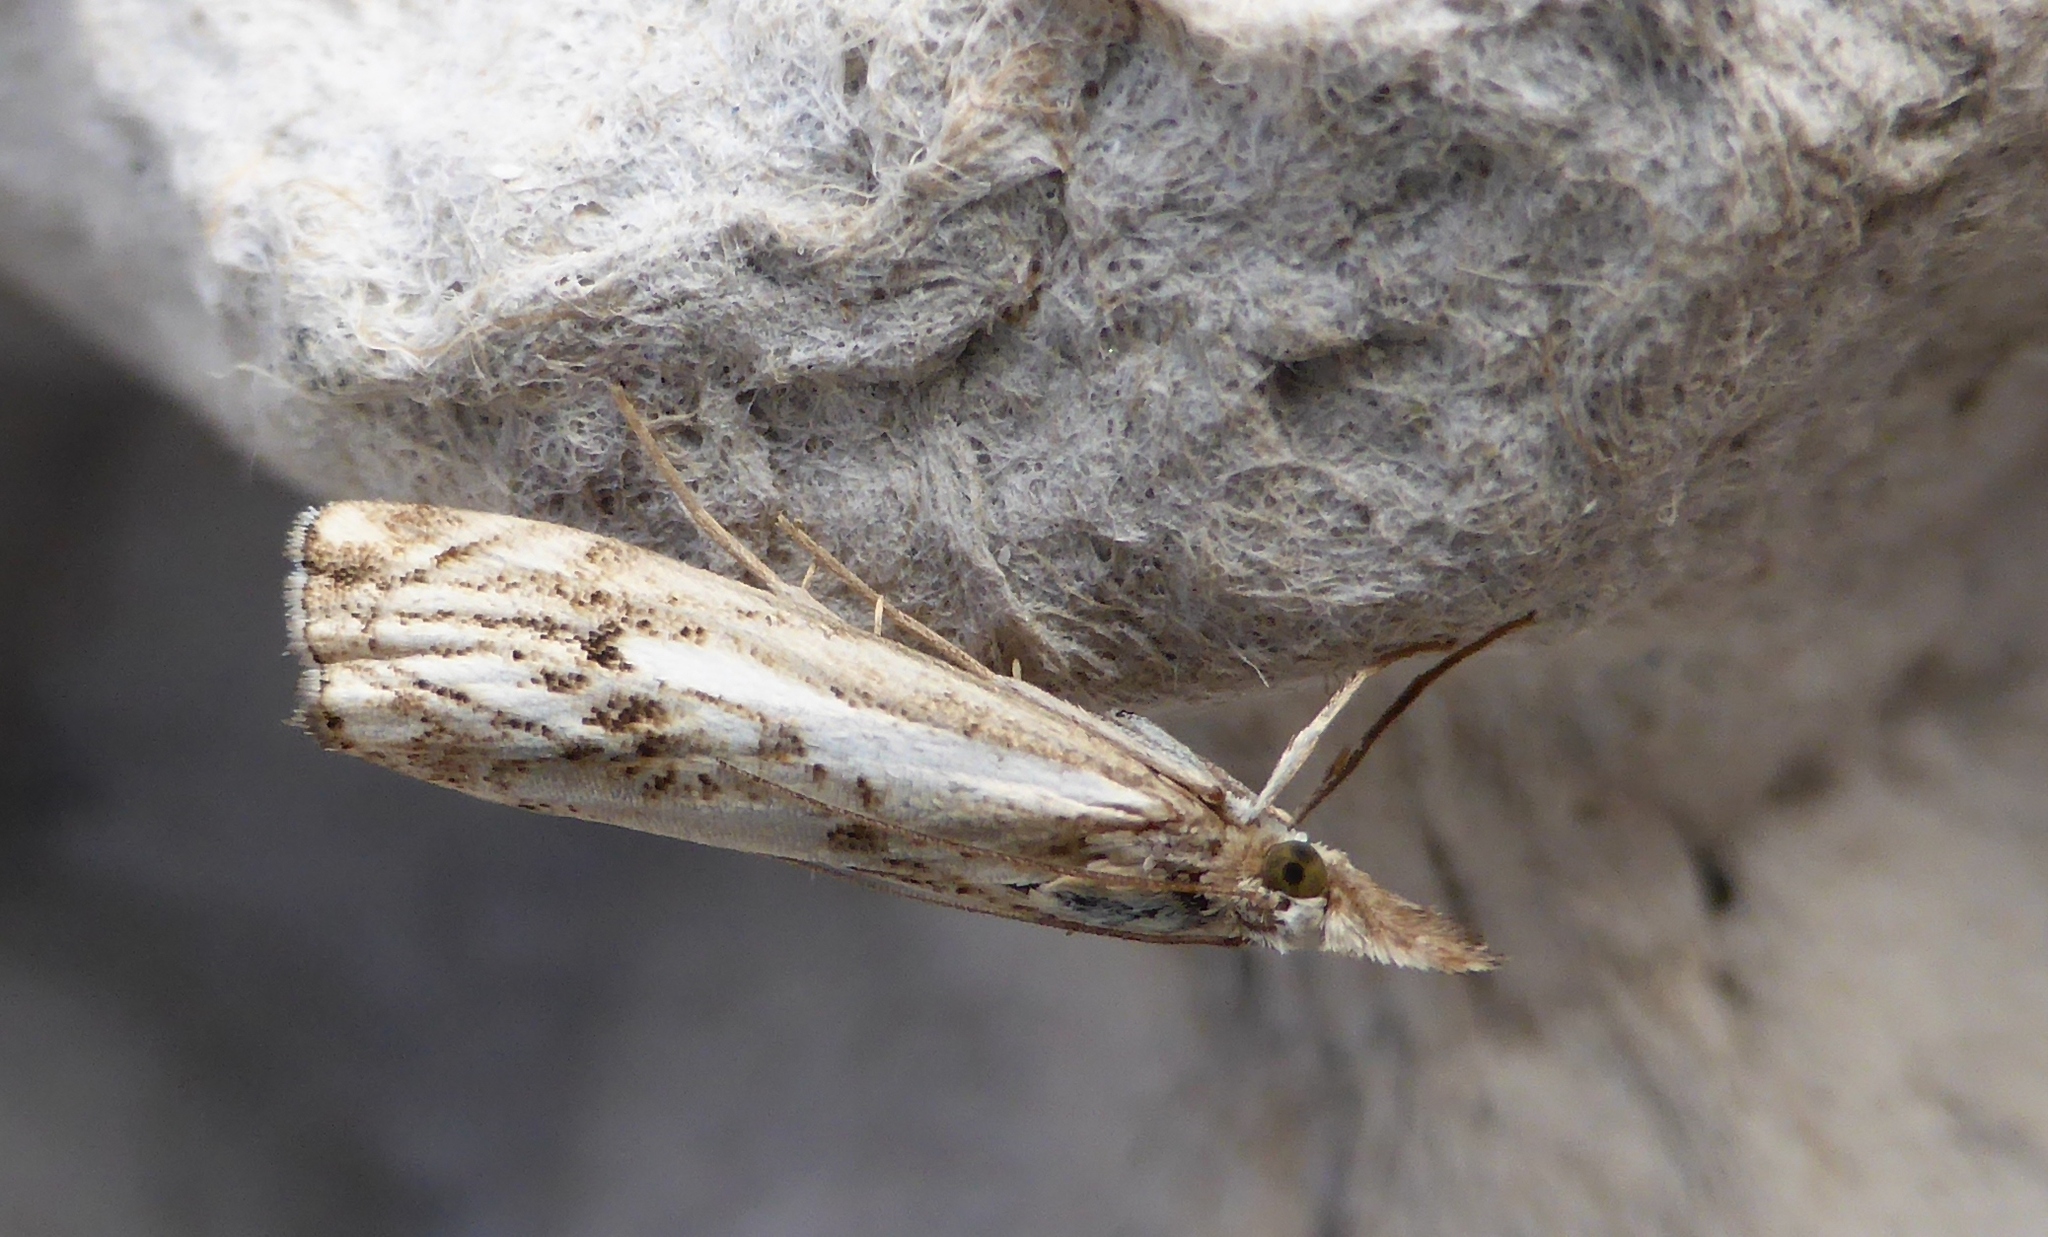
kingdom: Animalia
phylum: Arthropoda
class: Insecta
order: Lepidoptera
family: Crambidae
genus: Catoptria
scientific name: Catoptria falsella
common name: Chequered grass-veneer
